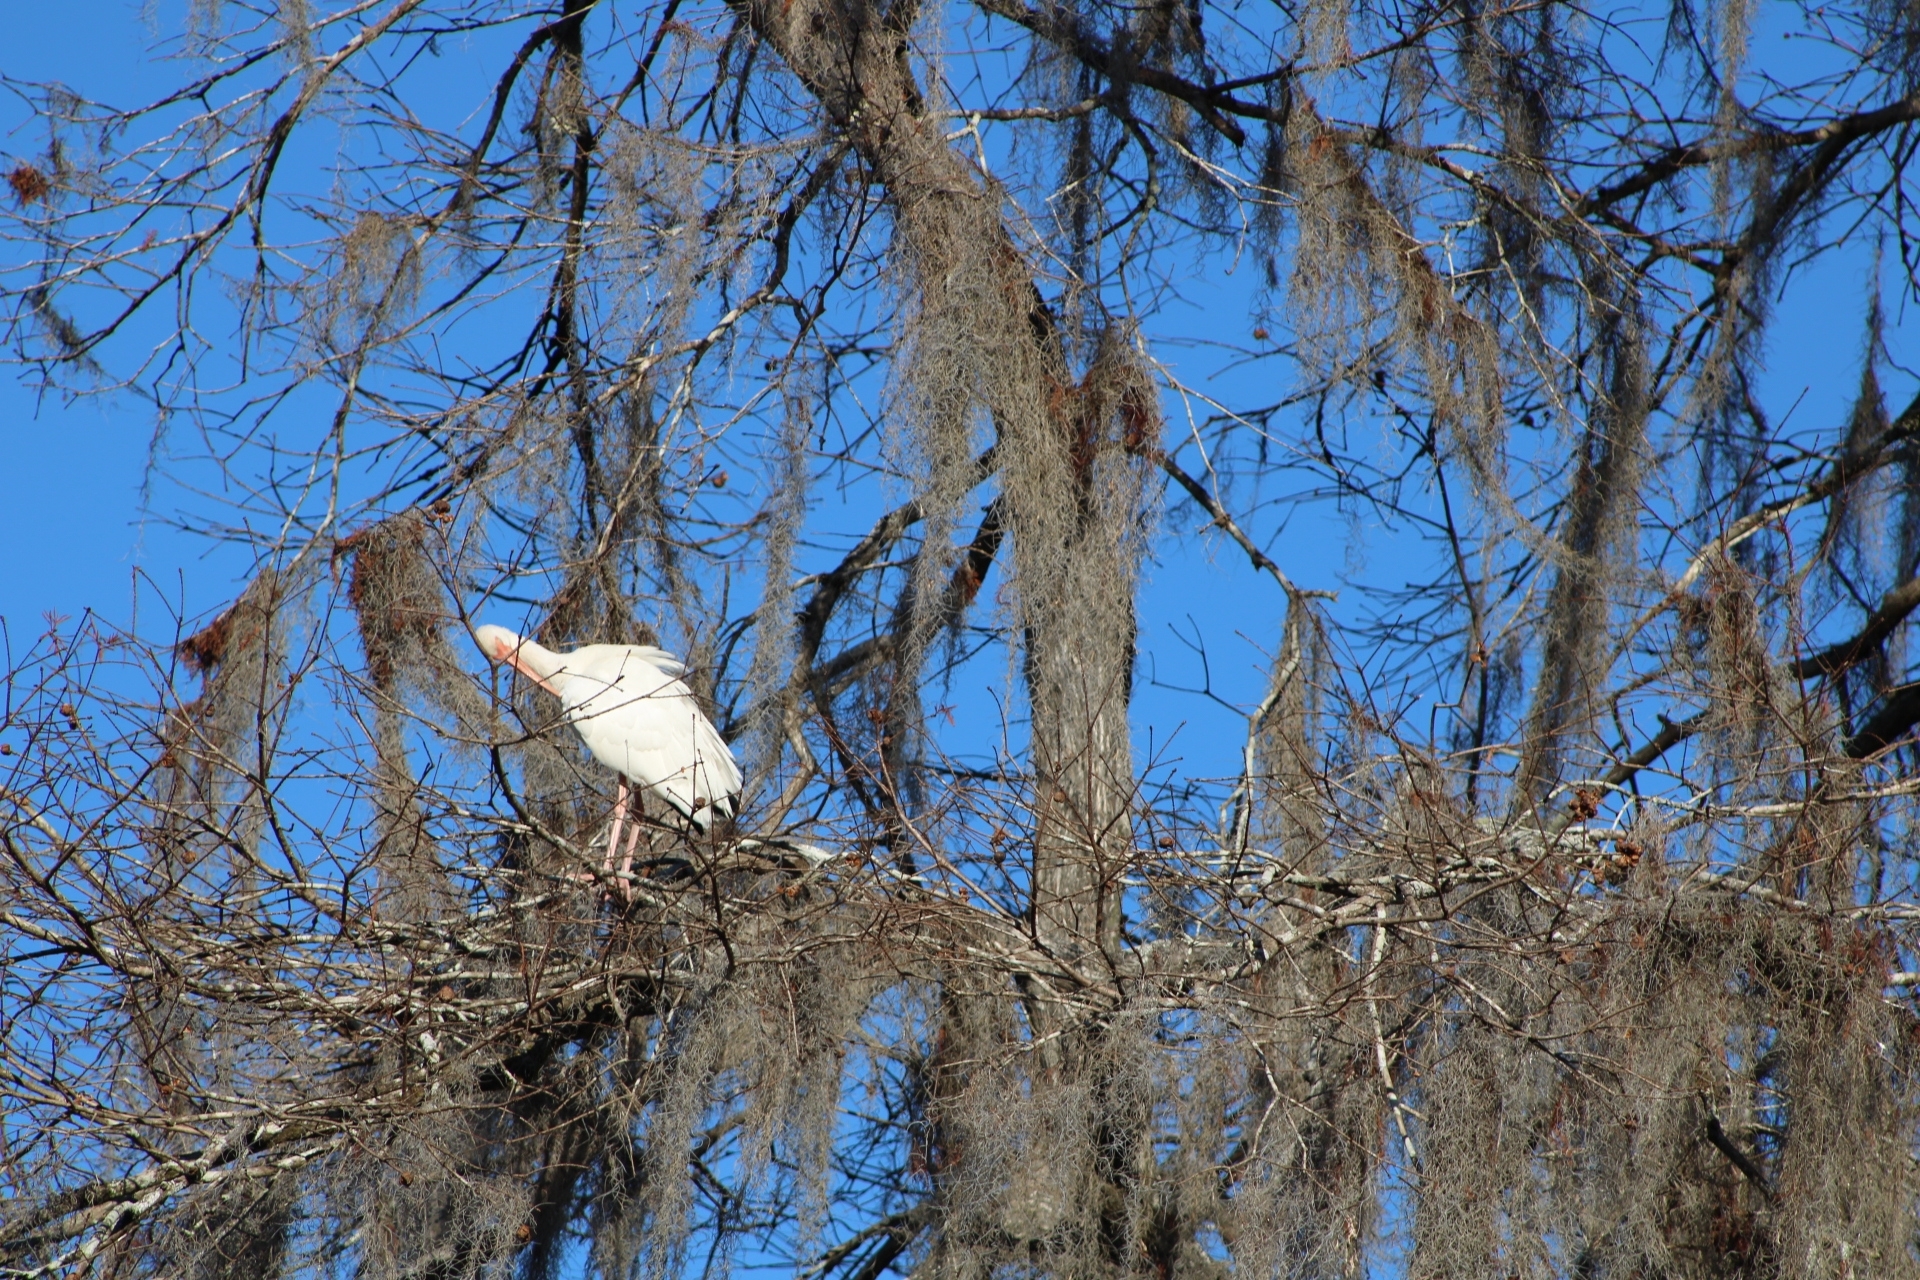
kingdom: Animalia
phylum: Chordata
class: Aves
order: Pelecaniformes
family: Threskiornithidae
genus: Eudocimus
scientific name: Eudocimus albus
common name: White ibis
